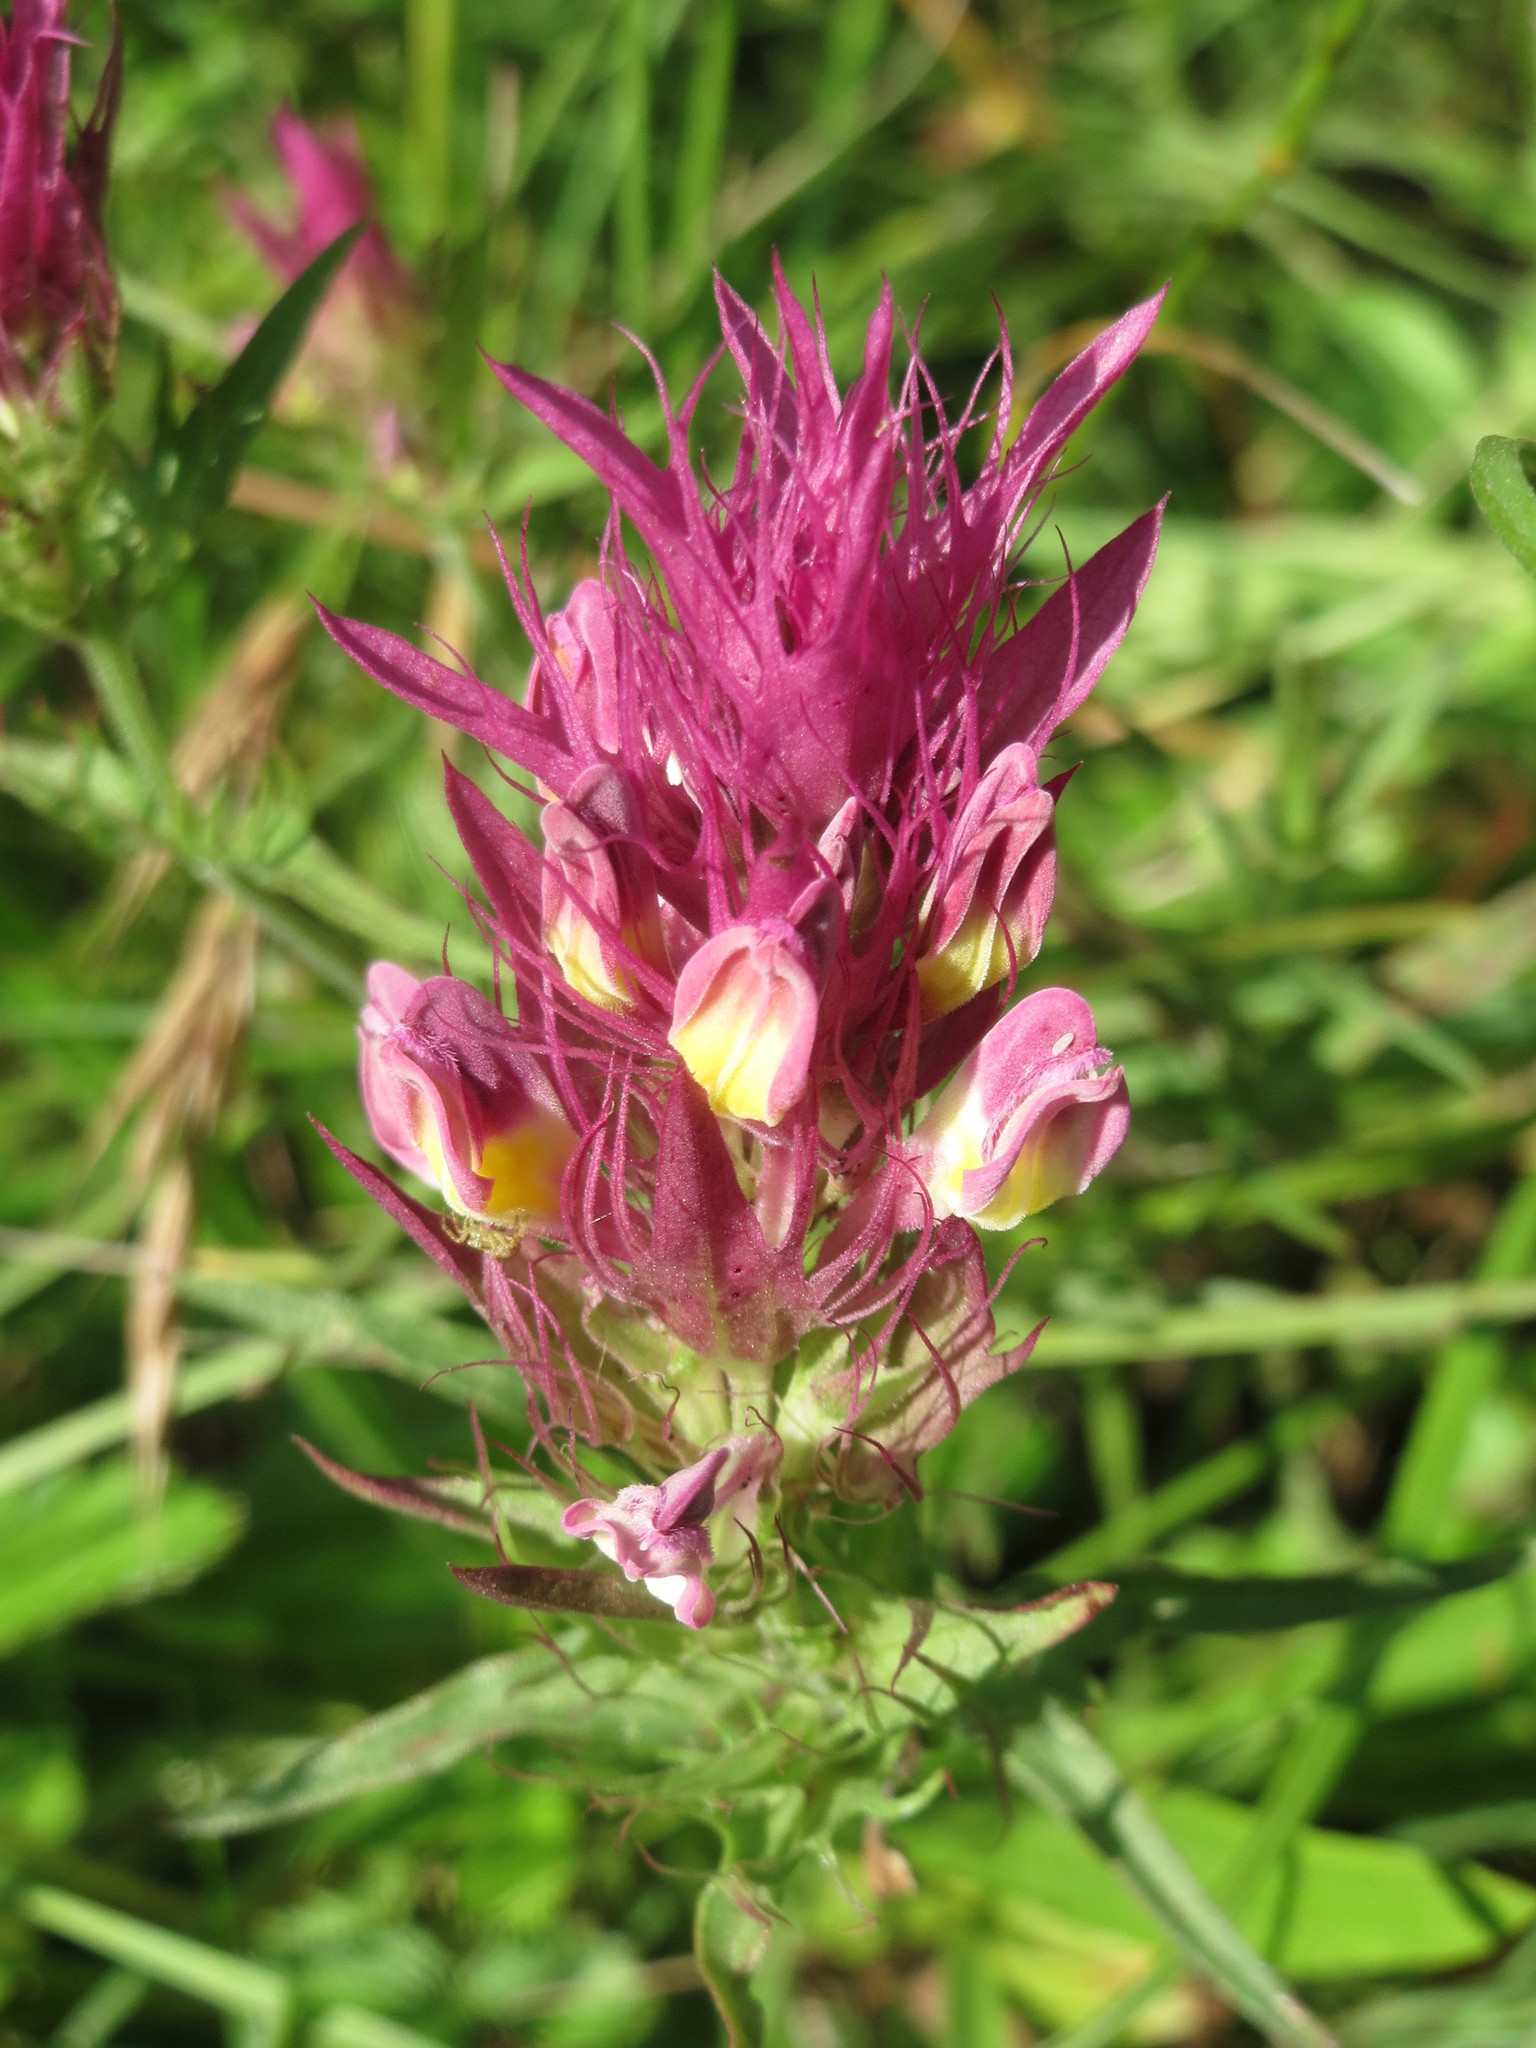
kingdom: Plantae
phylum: Tracheophyta
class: Magnoliopsida
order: Lamiales
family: Orobanchaceae
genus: Melampyrum
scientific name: Melampyrum arvense
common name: Field cow-wheat
